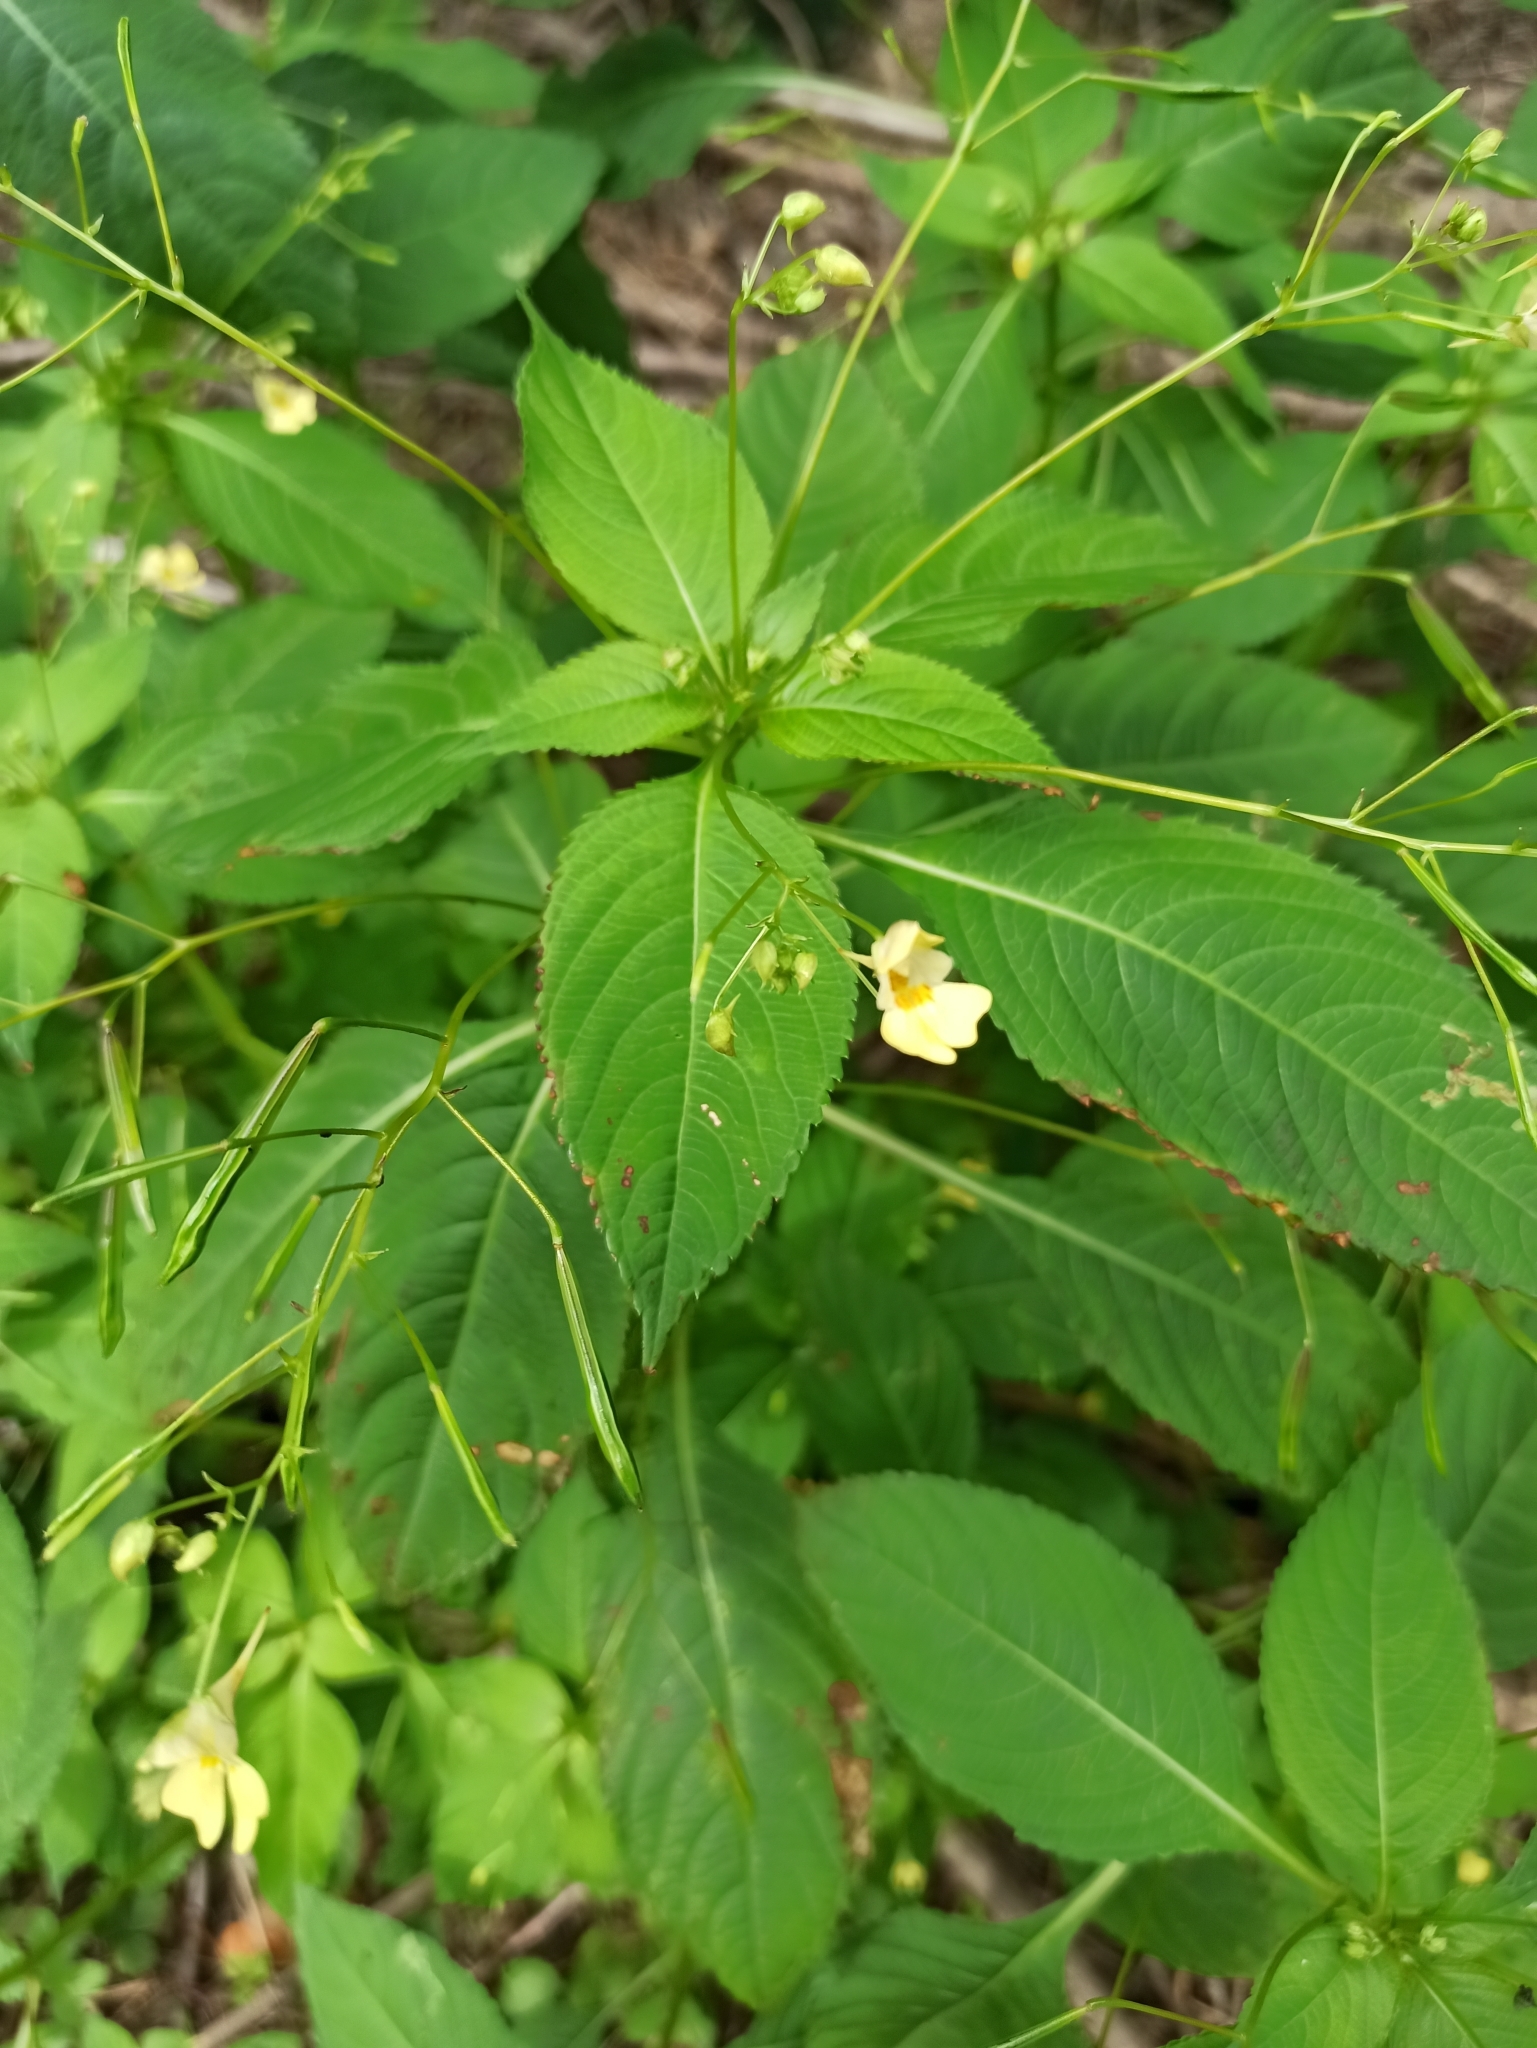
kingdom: Plantae
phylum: Tracheophyta
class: Magnoliopsida
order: Ericales
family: Balsaminaceae
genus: Impatiens
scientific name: Impatiens parviflora
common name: Small balsam
